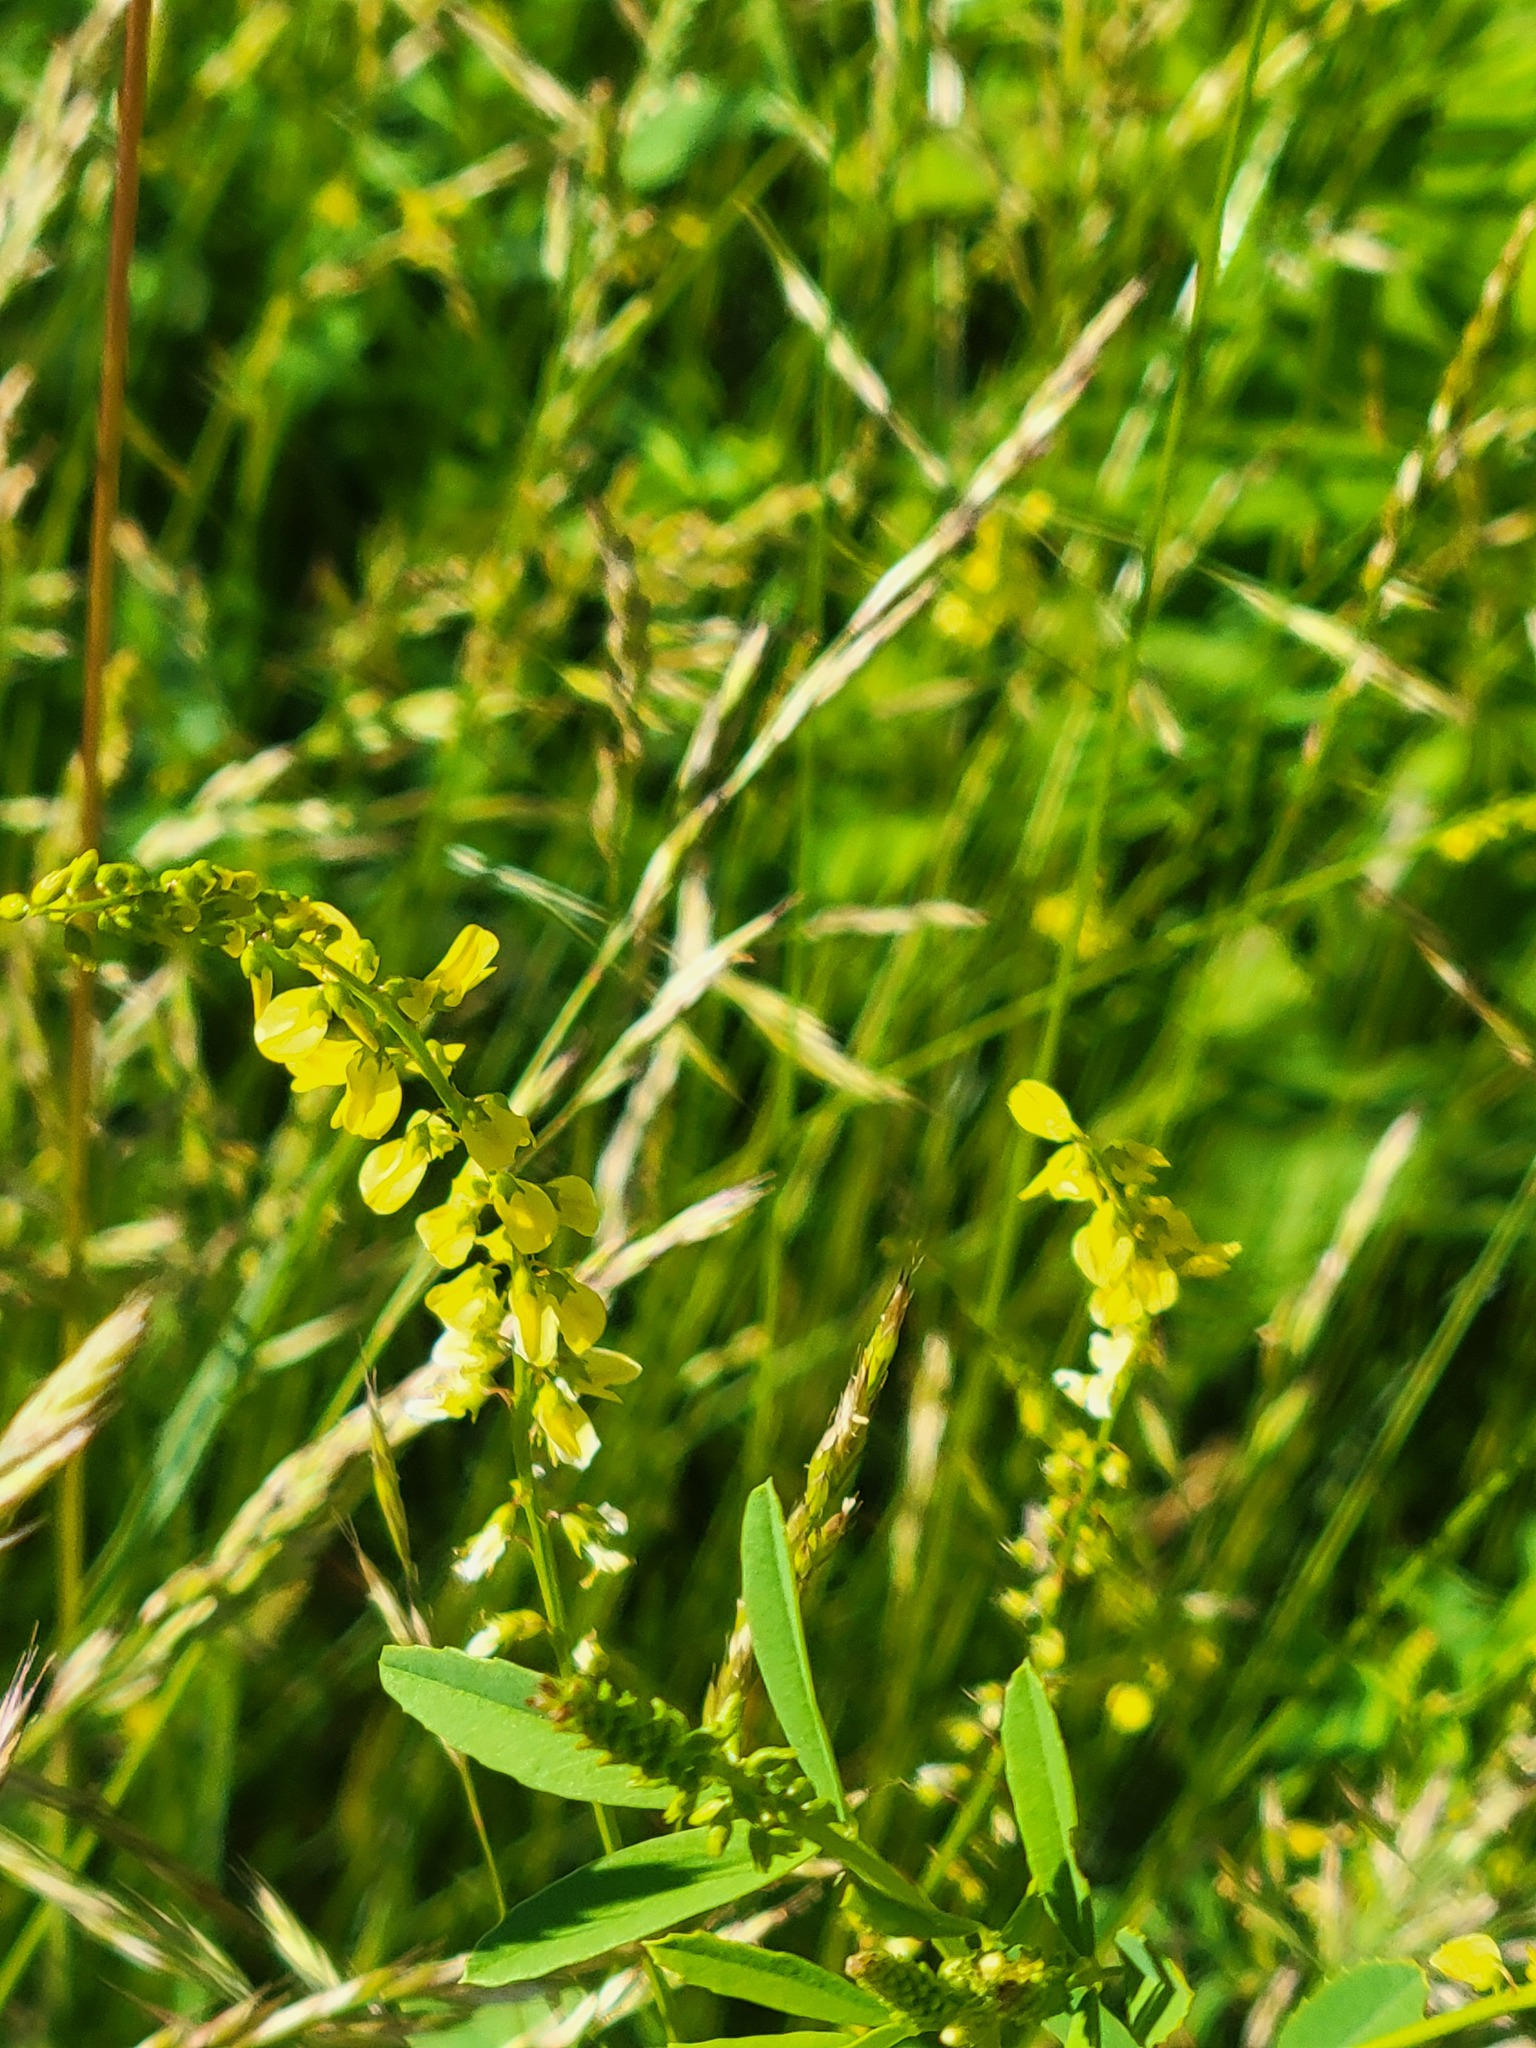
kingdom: Plantae
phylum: Tracheophyta
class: Magnoliopsida
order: Fabales
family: Fabaceae
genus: Melilotus
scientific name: Melilotus officinalis
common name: Sweetclover
